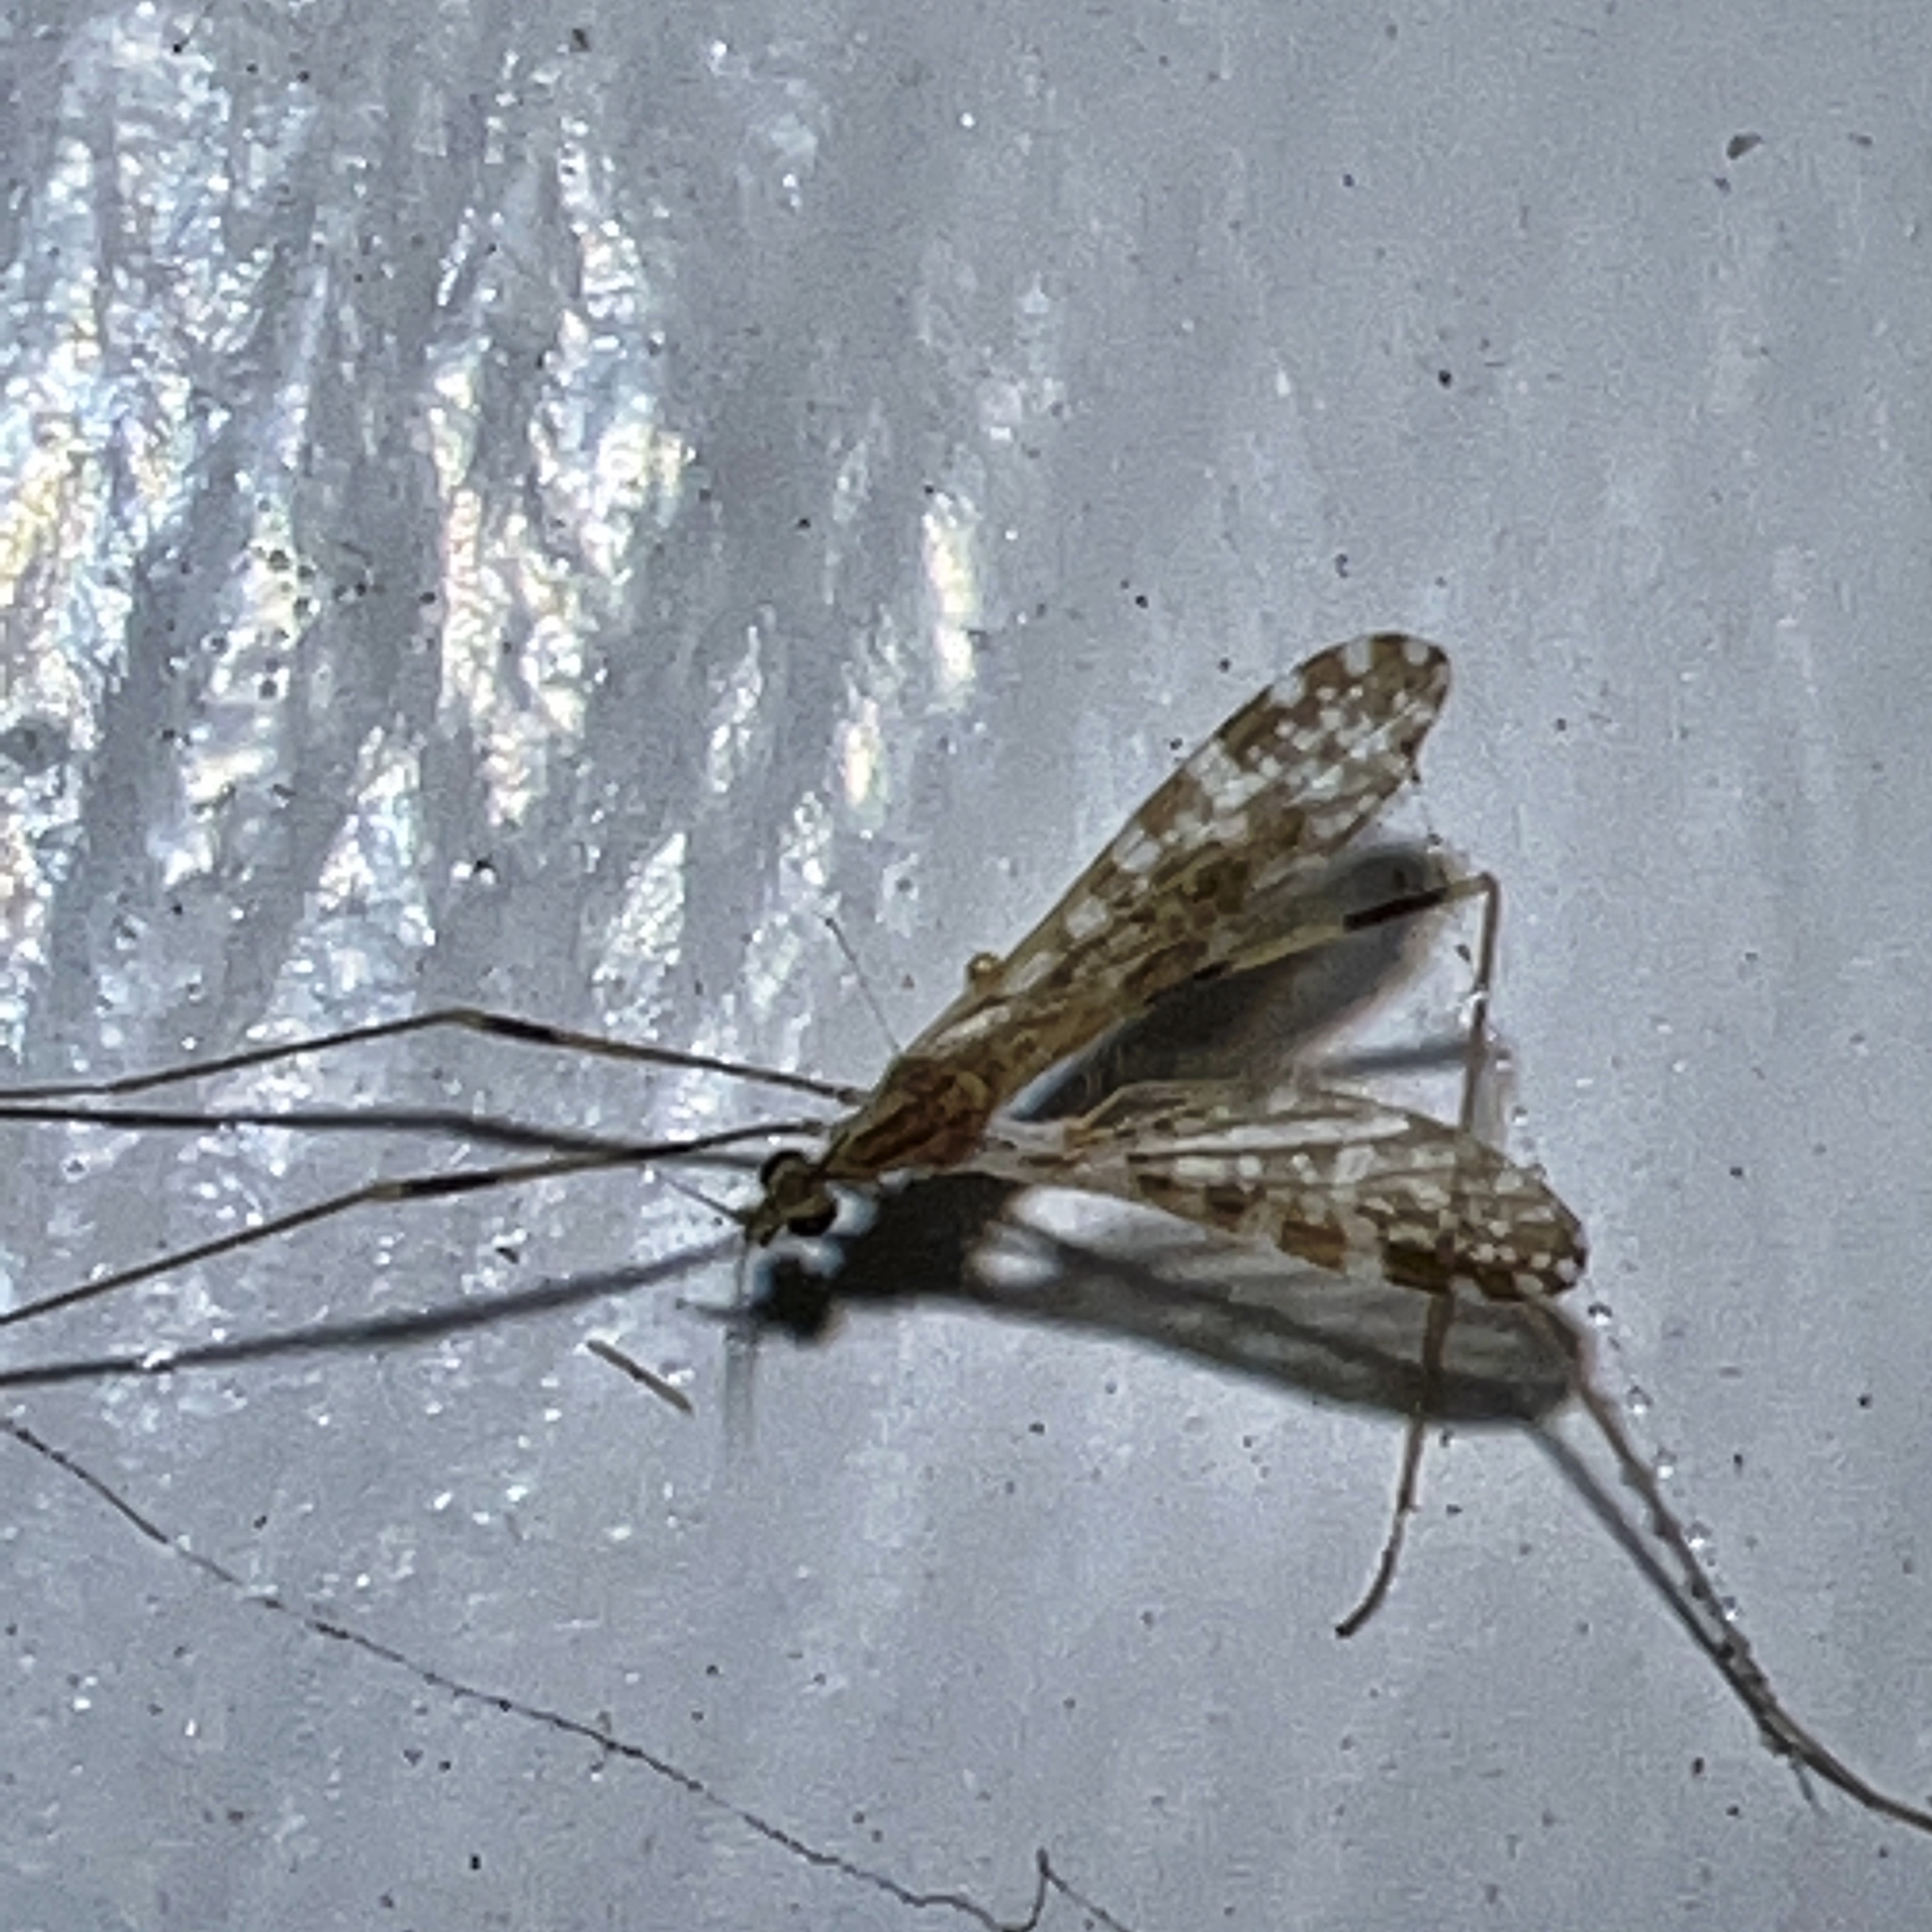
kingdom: Animalia
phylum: Arthropoda
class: Insecta
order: Diptera
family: Limoniidae
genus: Erioptera
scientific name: Erioptera caliptera
